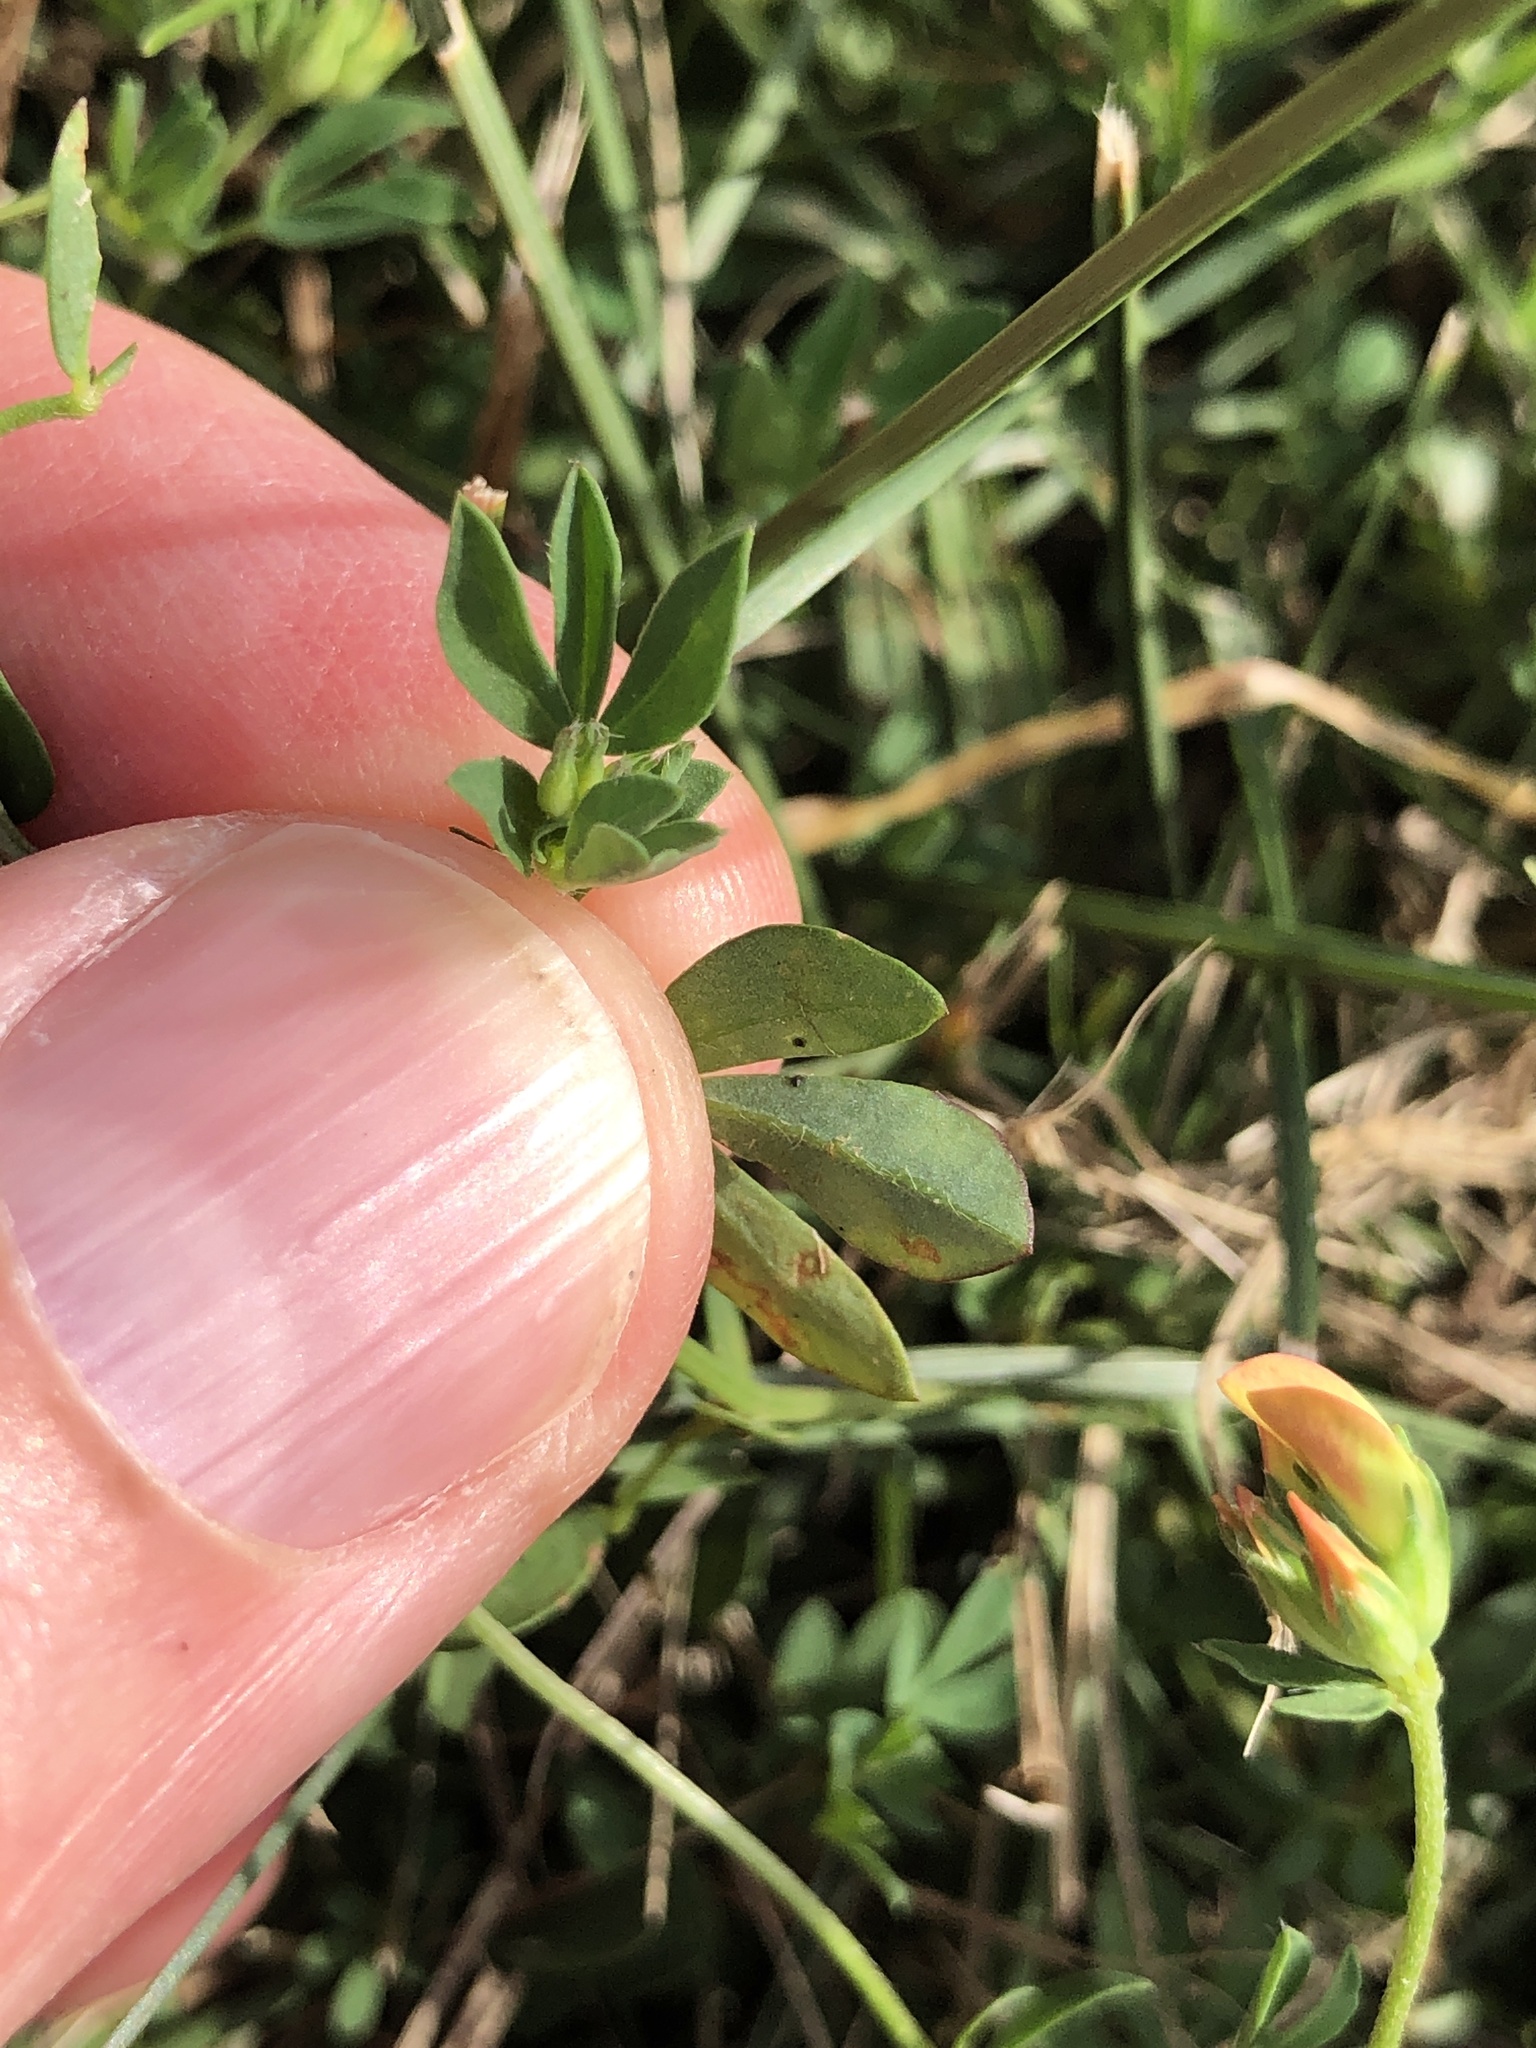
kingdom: Plantae
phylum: Tracheophyta
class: Magnoliopsida
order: Fabales
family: Fabaceae
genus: Lotus
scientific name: Lotus
